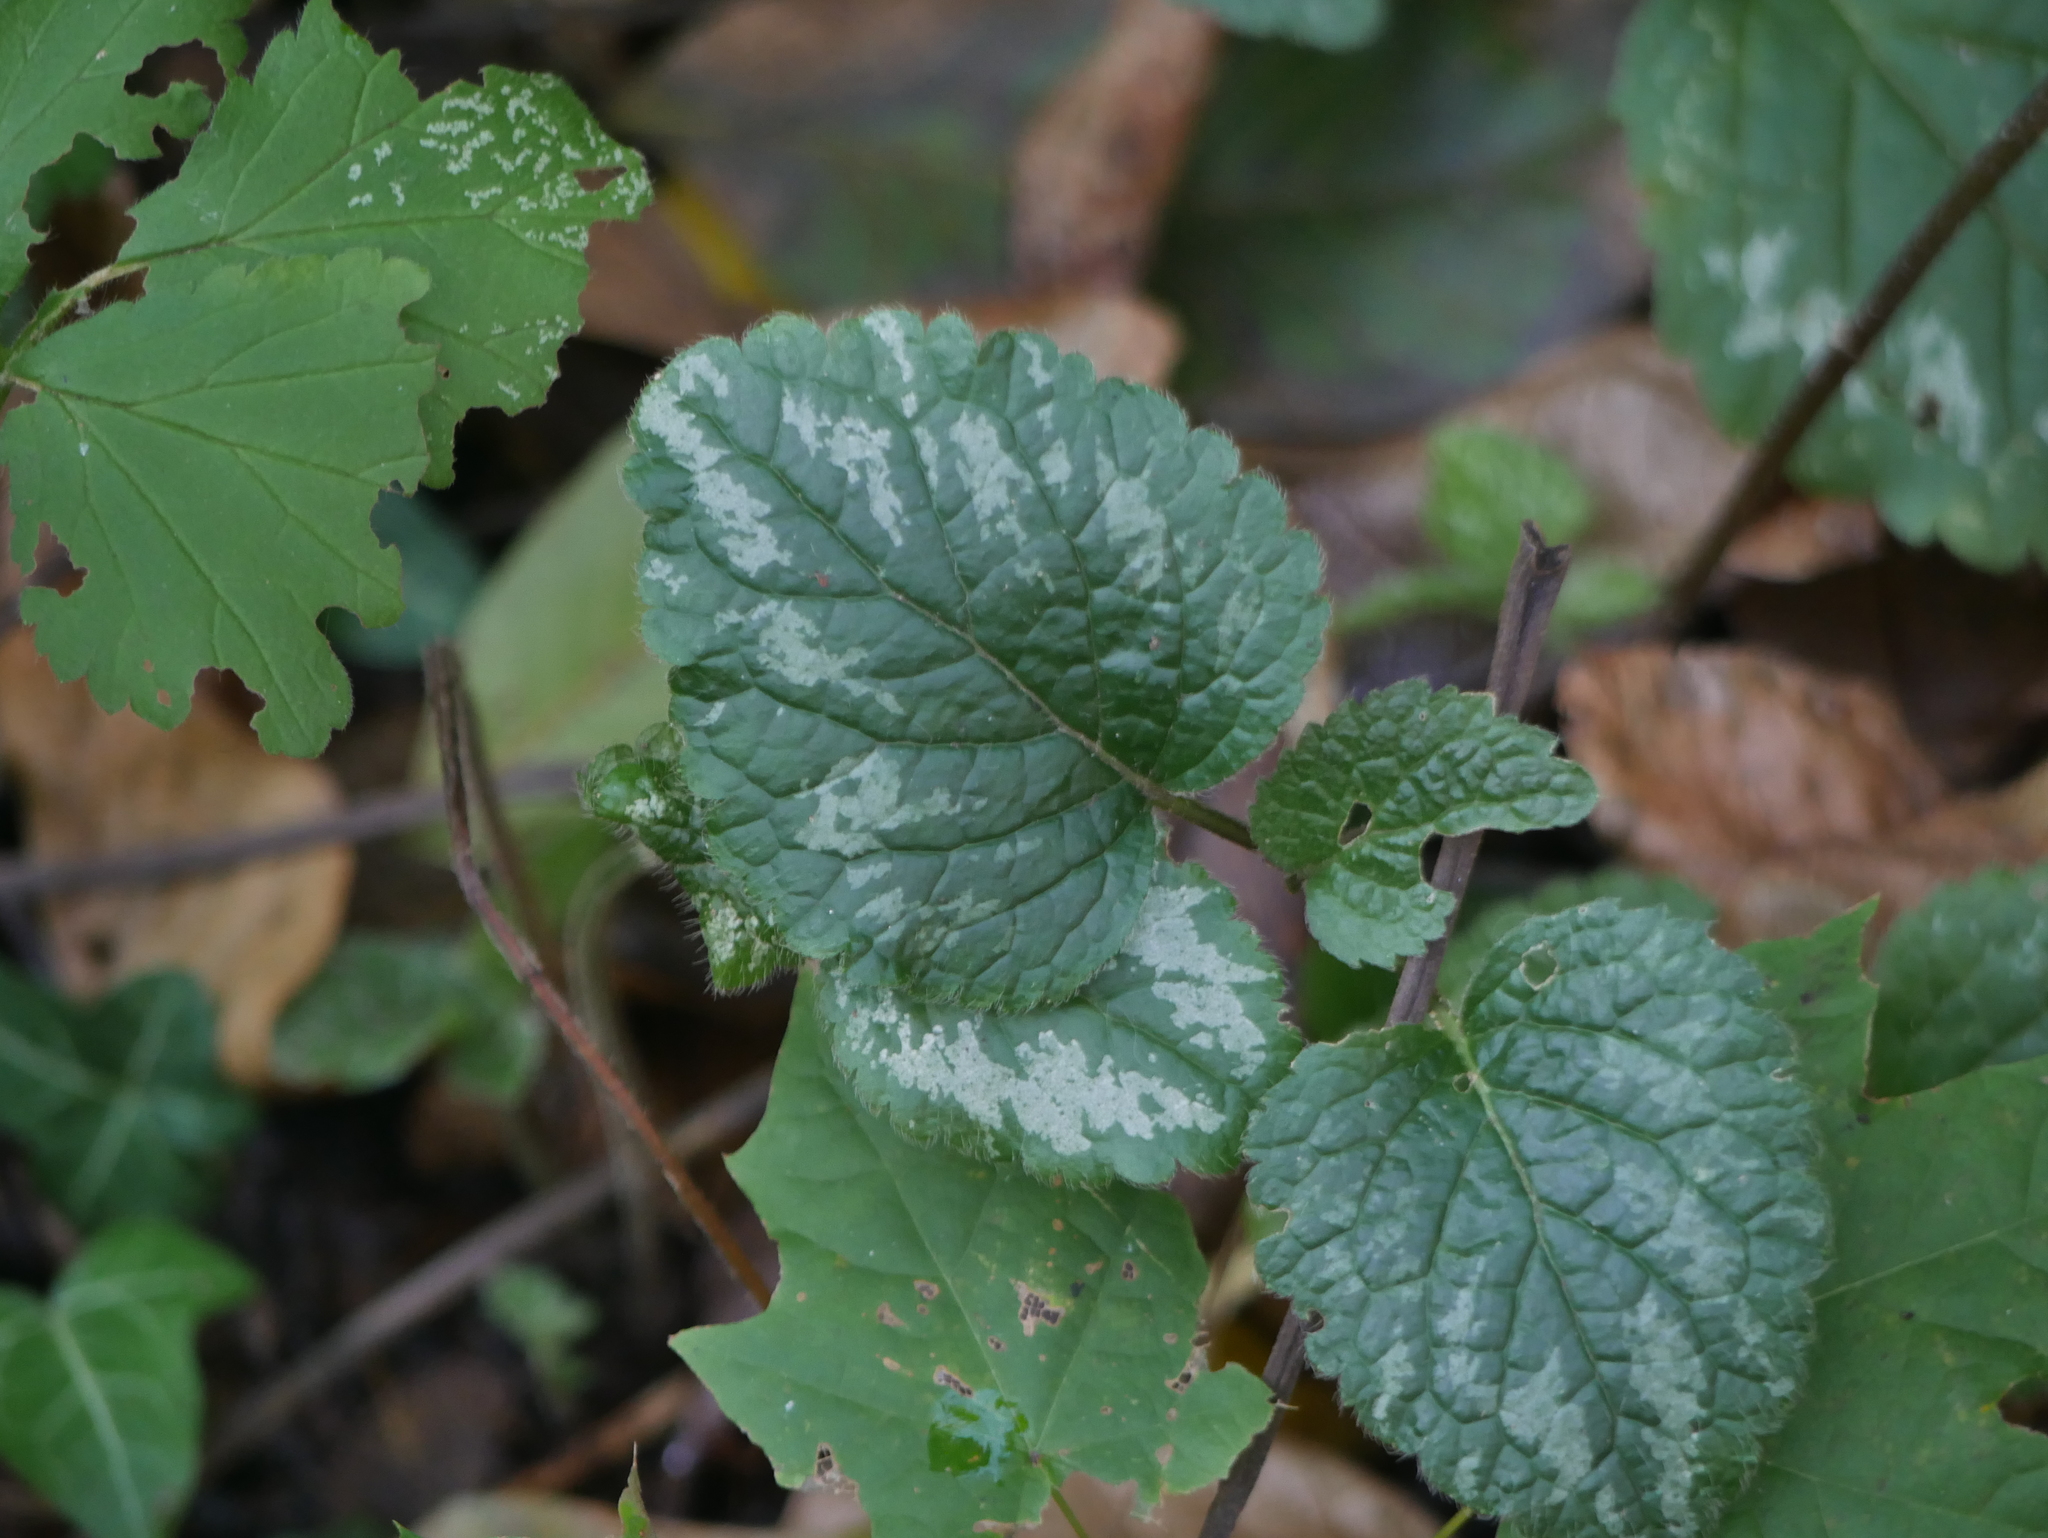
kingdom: Plantae
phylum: Tracheophyta
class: Magnoliopsida
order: Lamiales
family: Lamiaceae
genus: Lamium
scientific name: Lamium galeobdolon
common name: Yellow archangel
